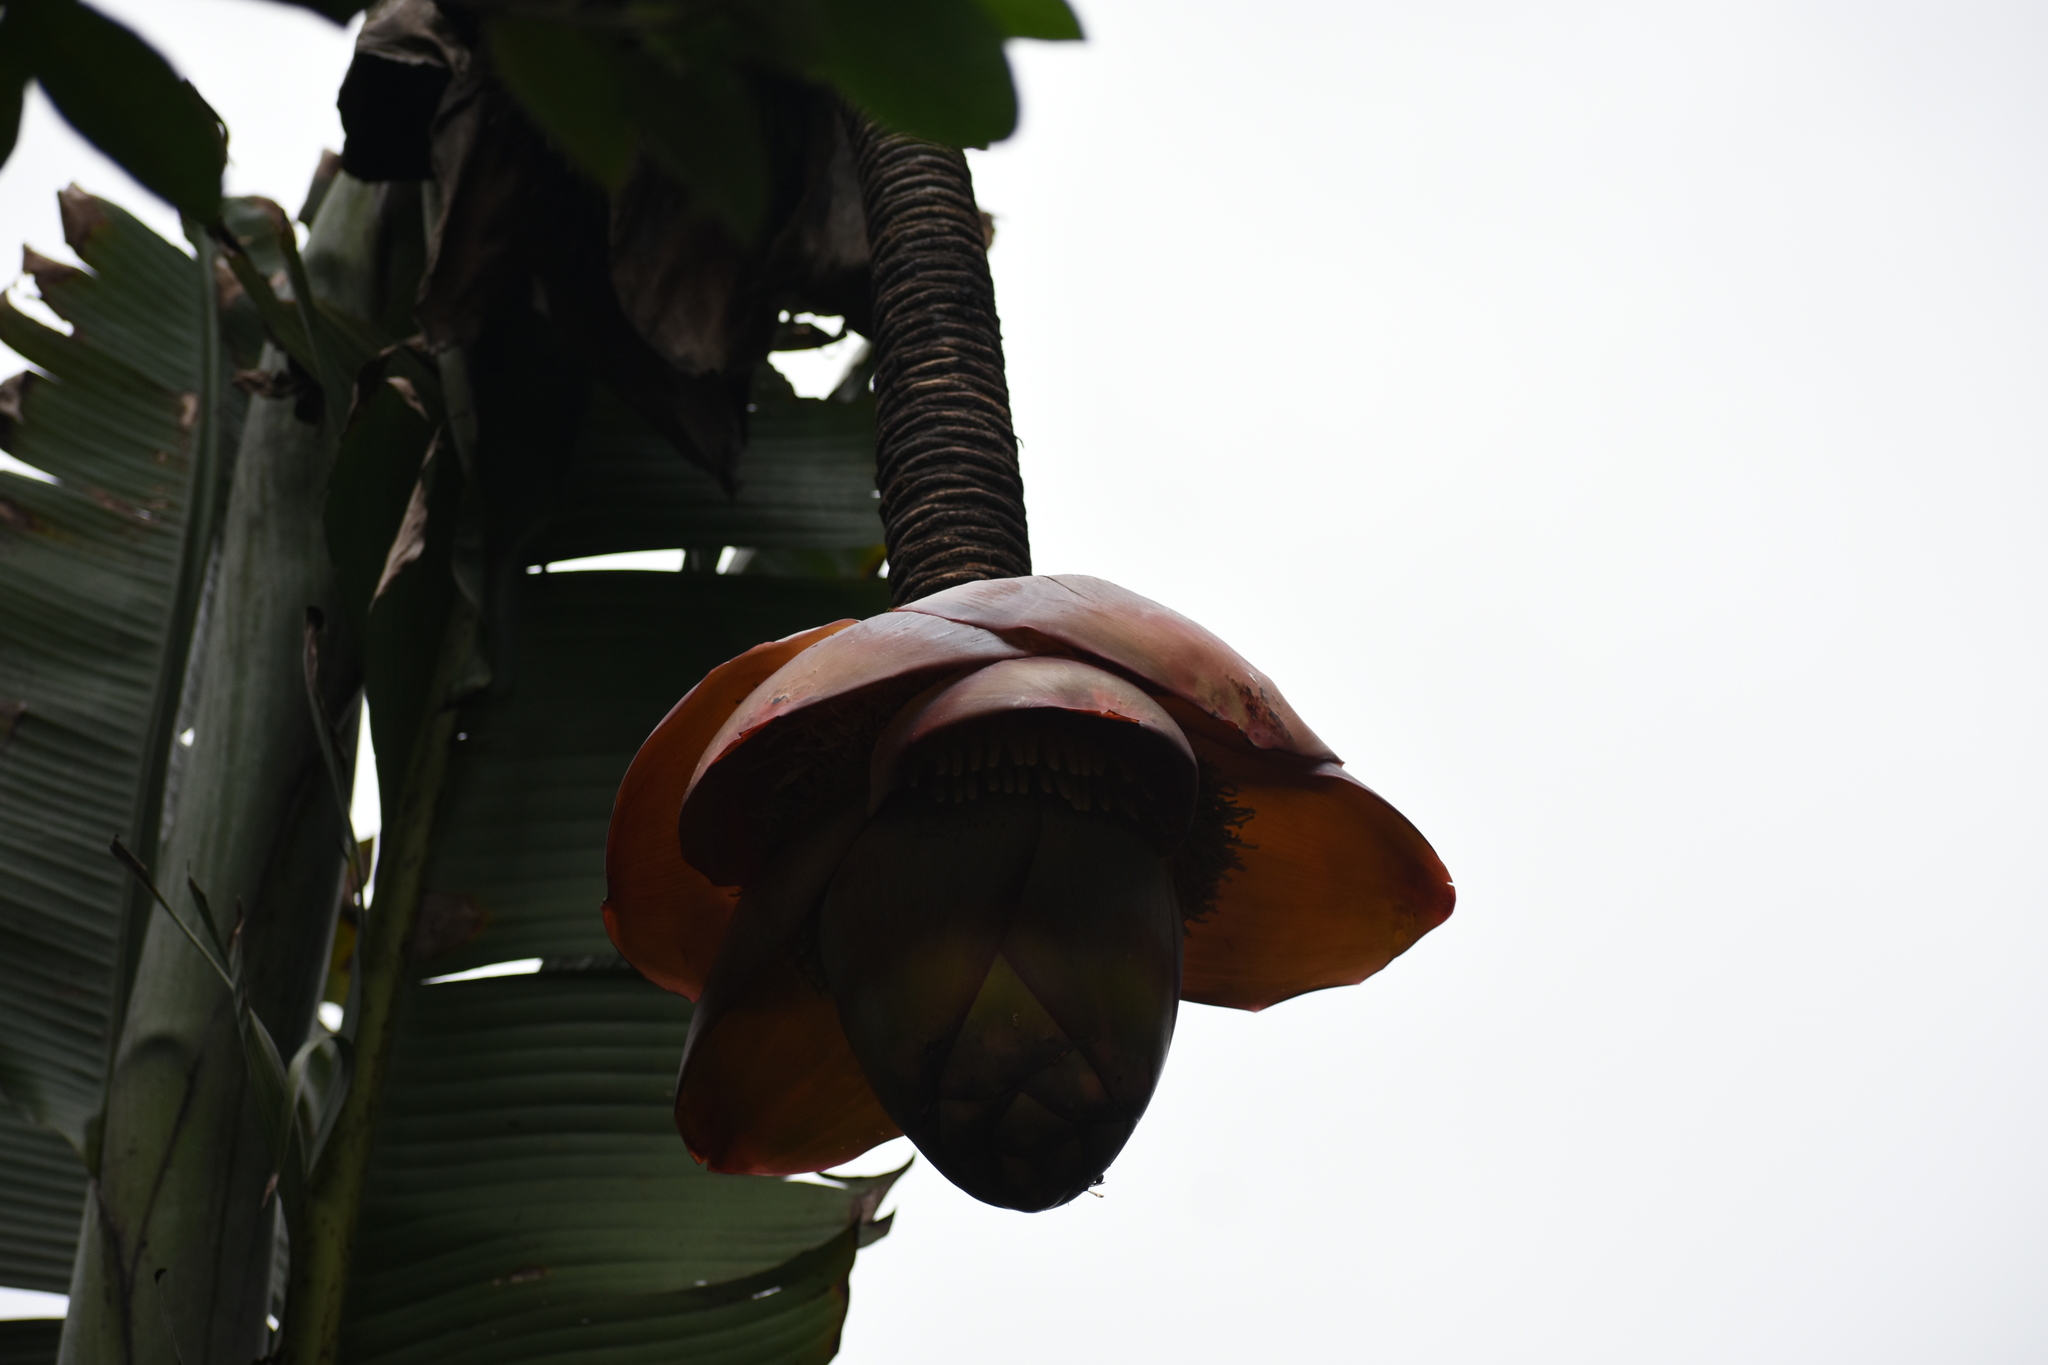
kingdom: Plantae
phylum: Tracheophyta
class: Liliopsida
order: Zingiberales
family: Musaceae
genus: Ensete
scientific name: Ensete superbum
